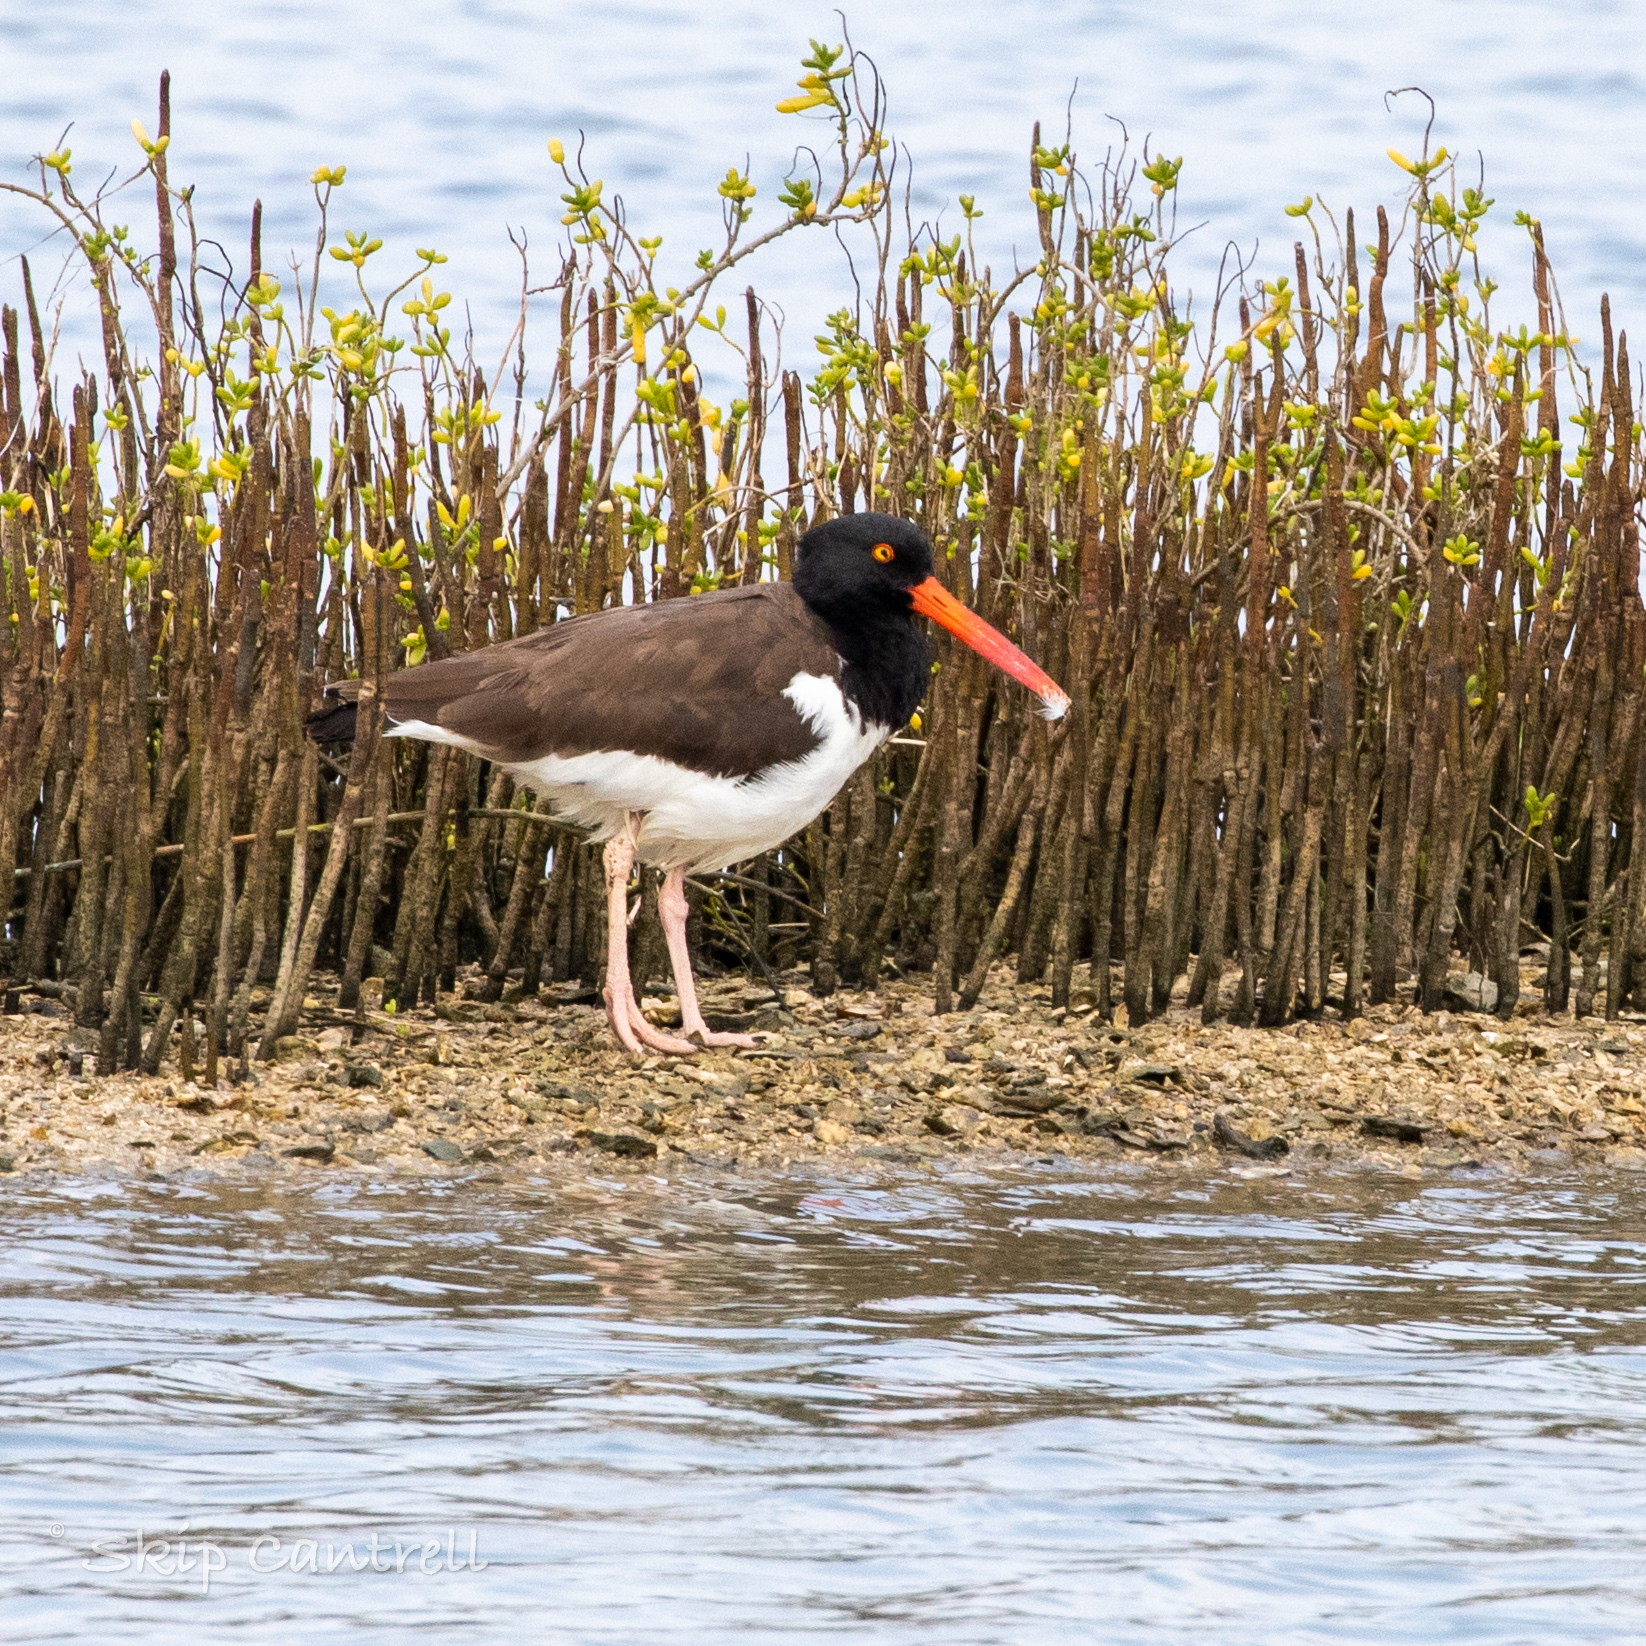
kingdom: Animalia
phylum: Chordata
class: Aves
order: Charadriiformes
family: Haematopodidae
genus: Haematopus
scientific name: Haematopus palliatus
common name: American oystercatcher
